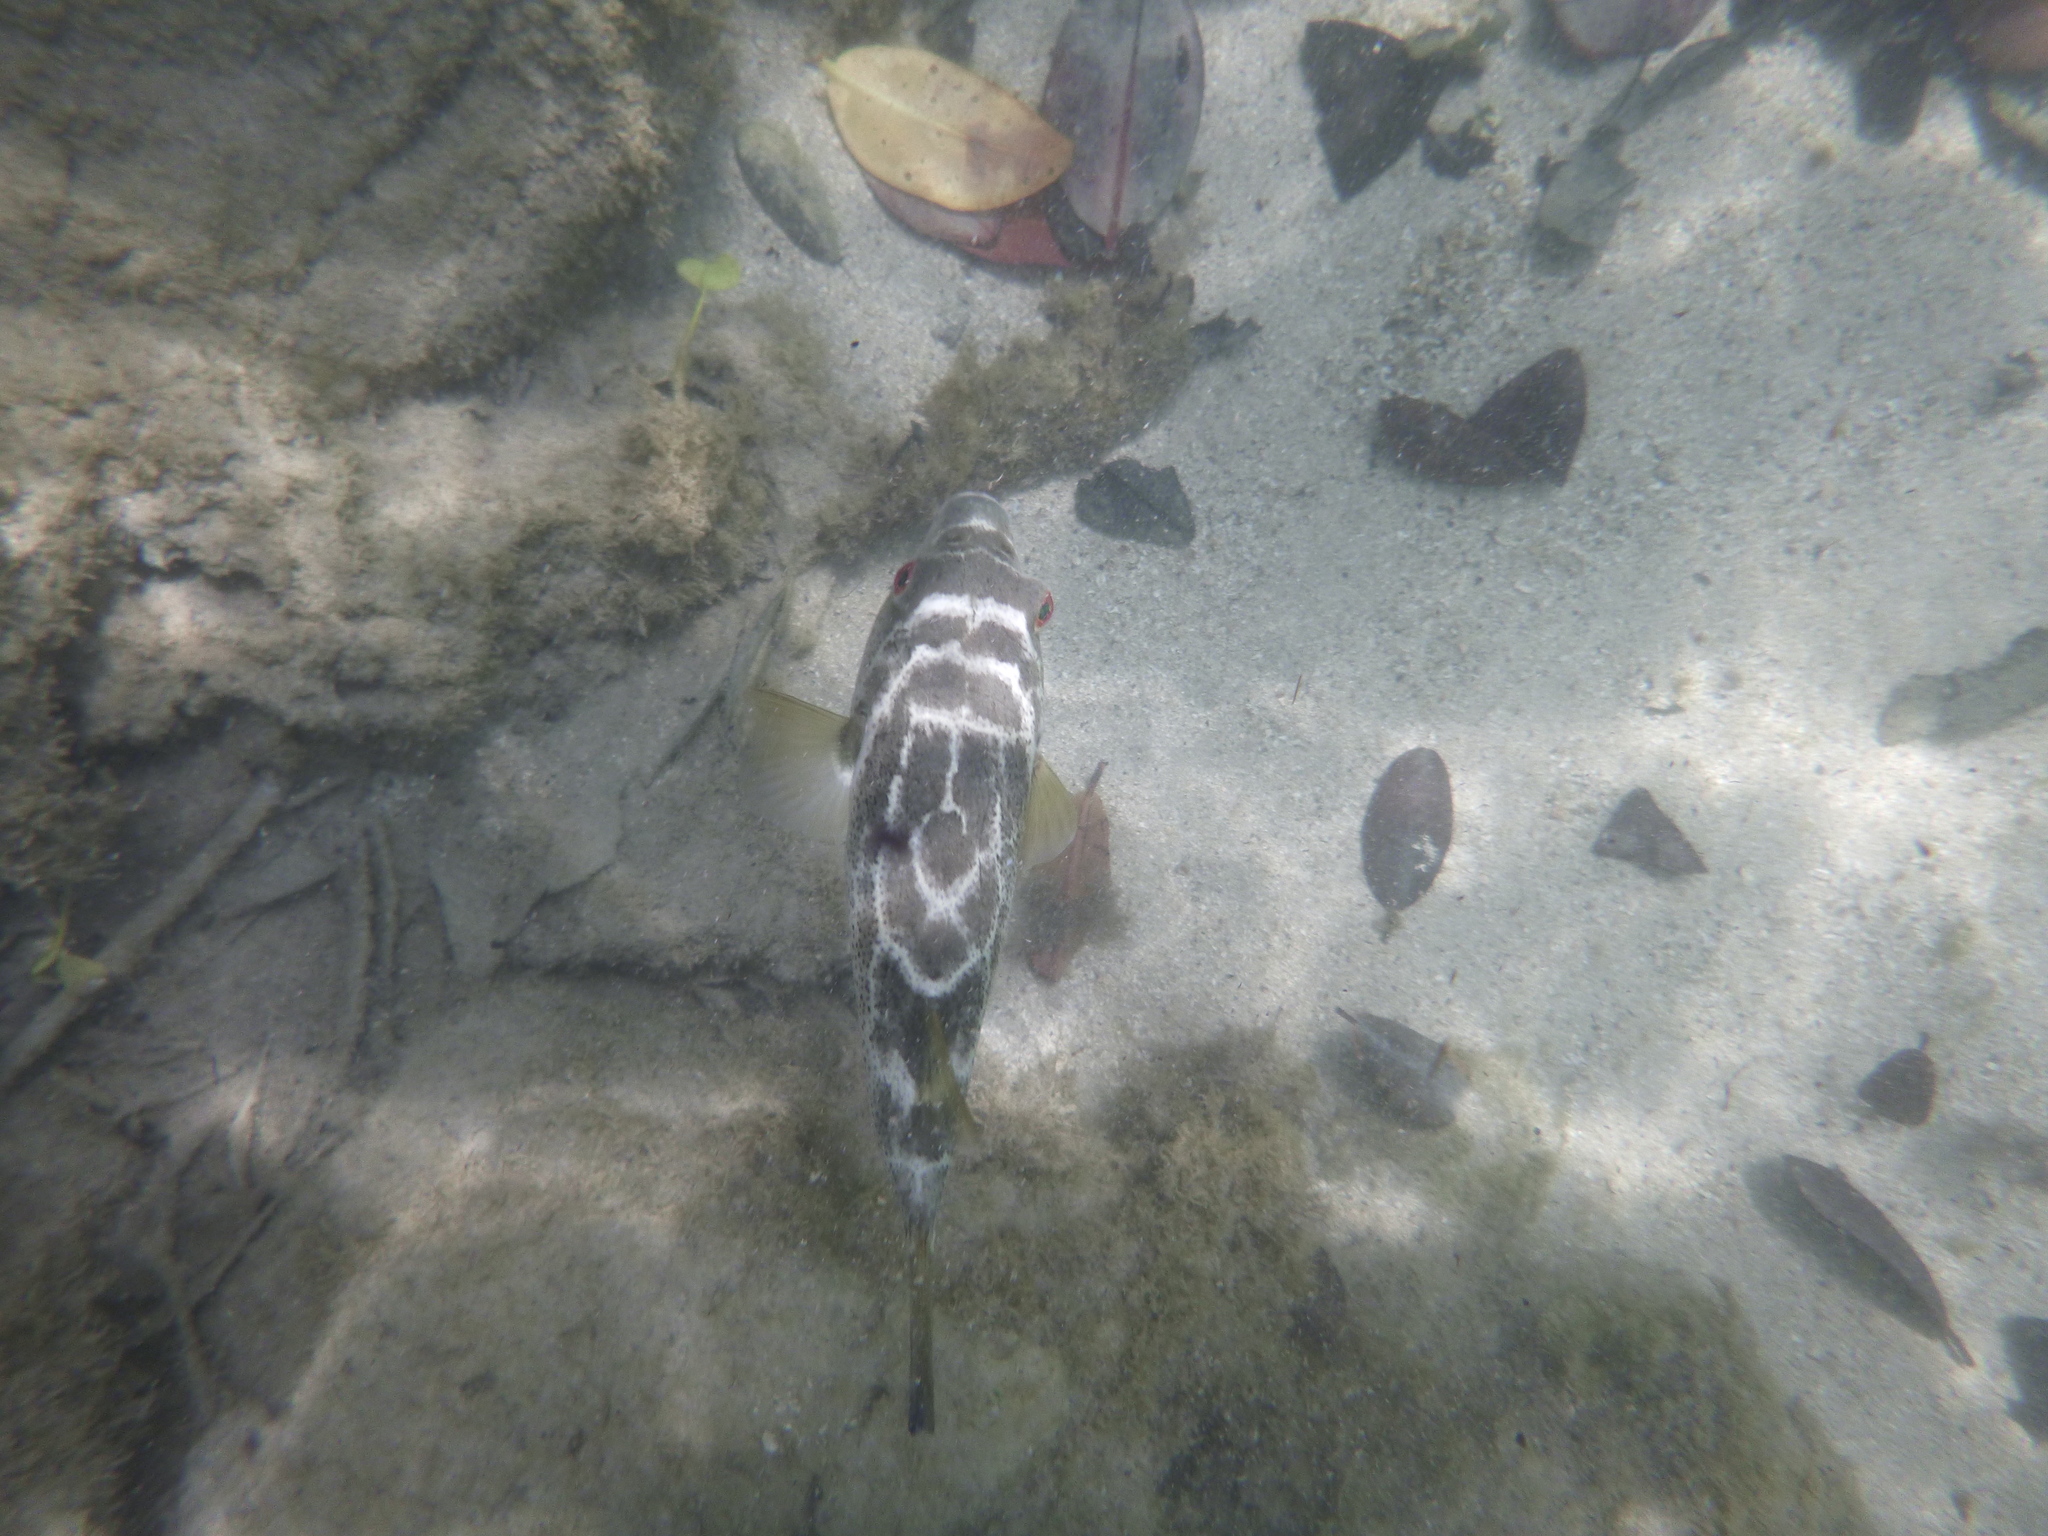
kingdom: Animalia
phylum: Chordata
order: Tetraodontiformes
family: Tetraodontidae
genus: Sphoeroides
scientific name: Sphoeroides annulatus
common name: Bullseye puffer
